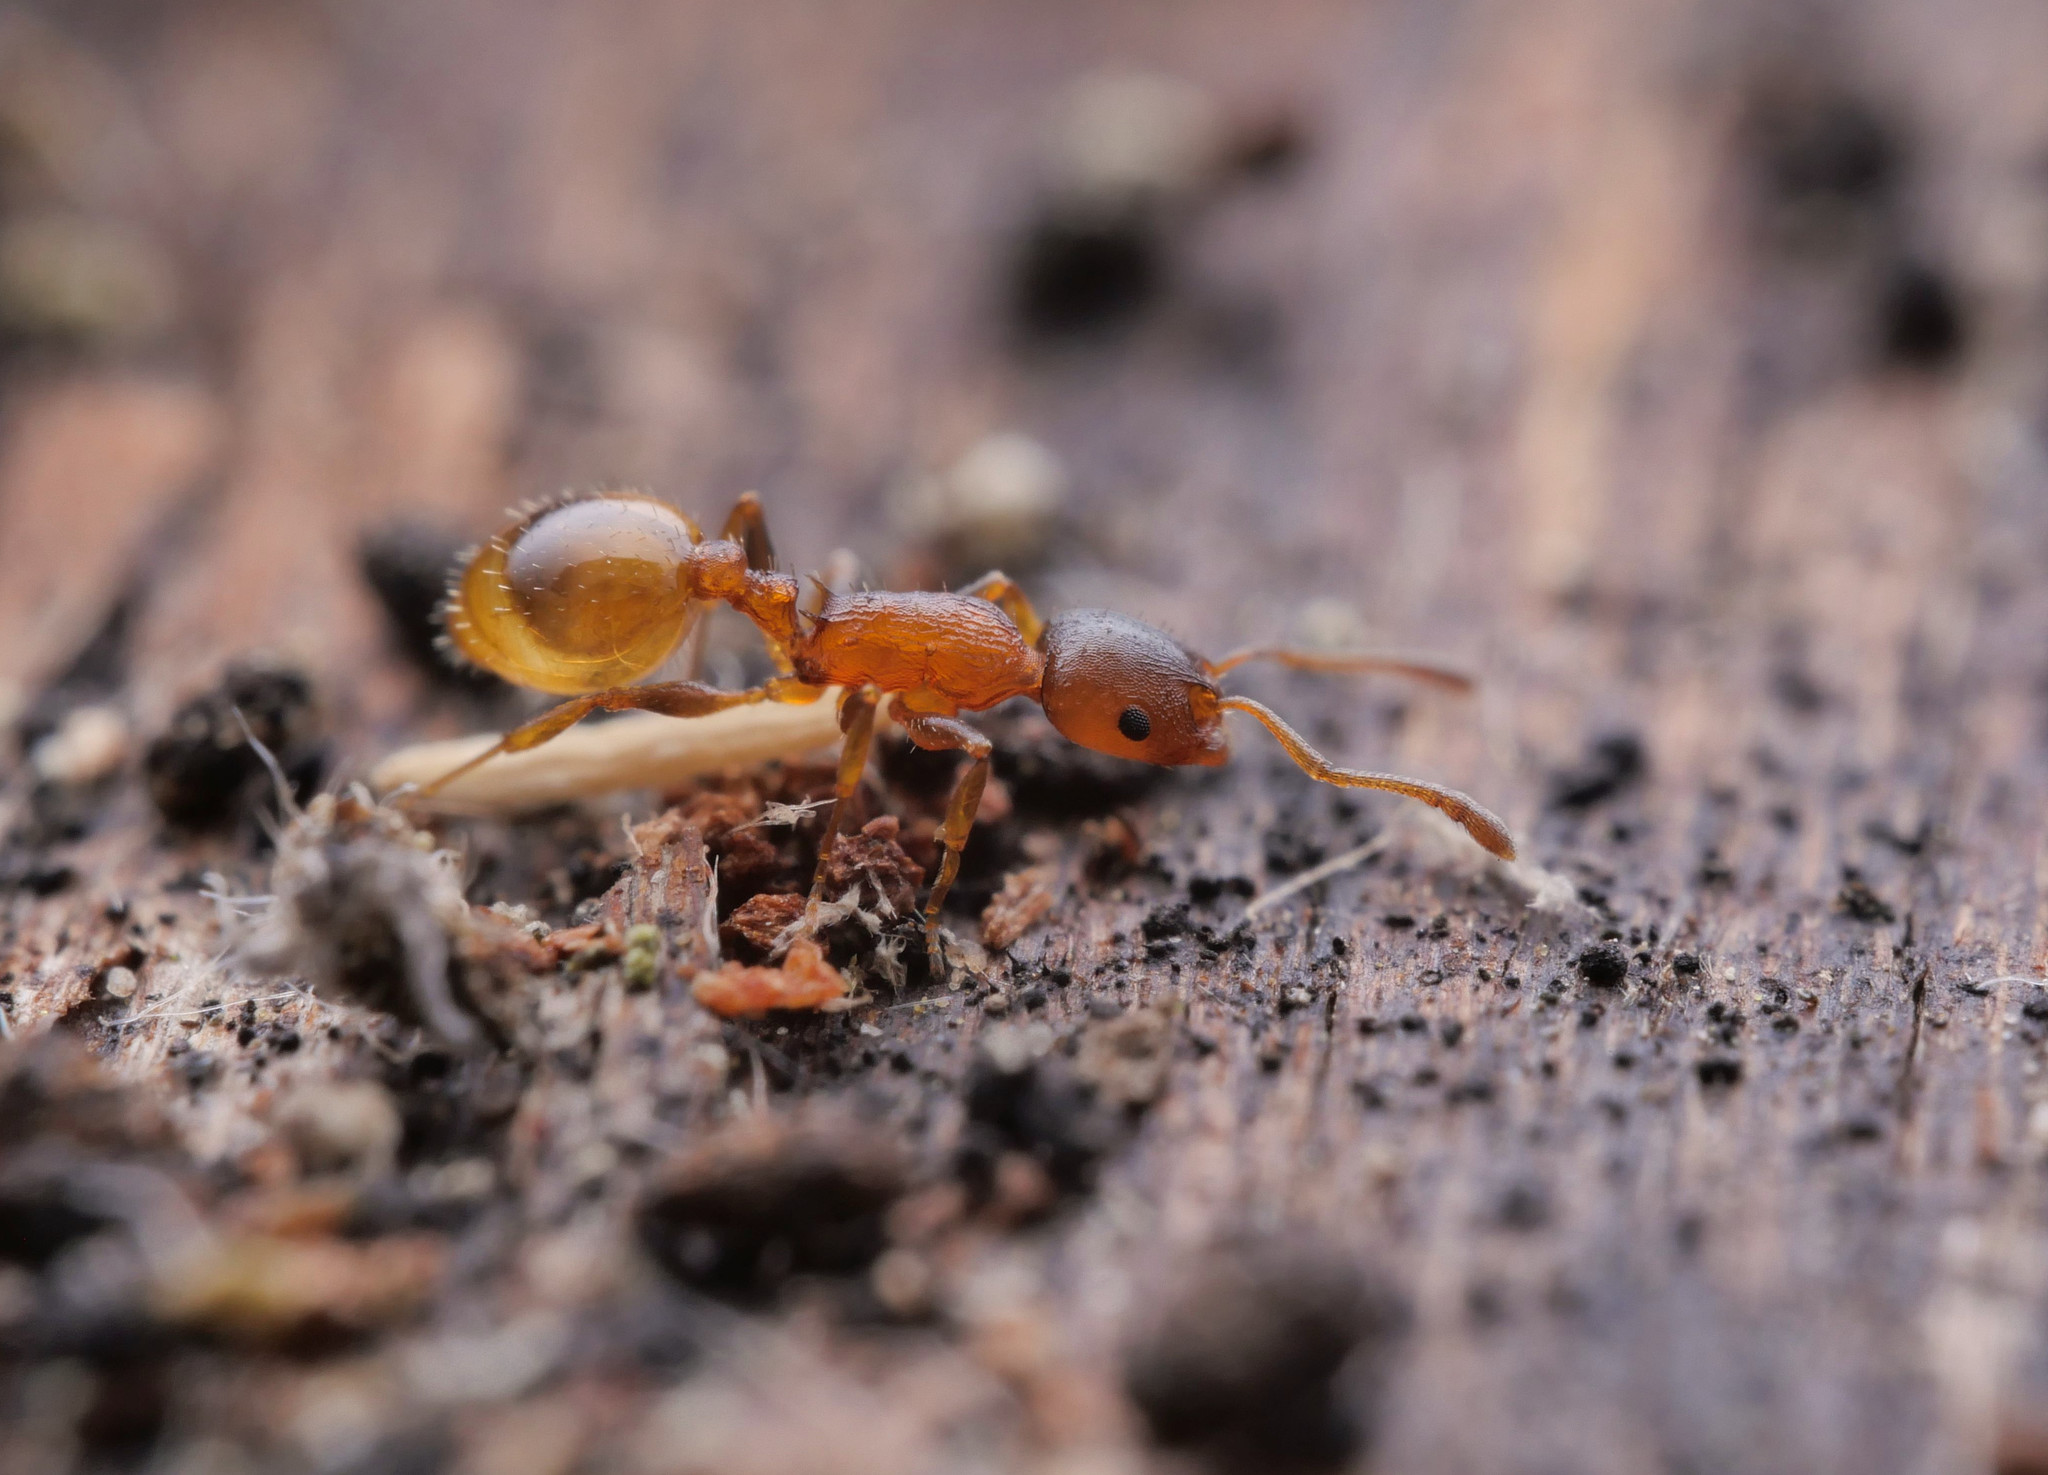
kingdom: Animalia
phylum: Arthropoda
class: Insecta
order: Hymenoptera
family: Formicidae
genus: Leptothorax
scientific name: Leptothorax affinis
